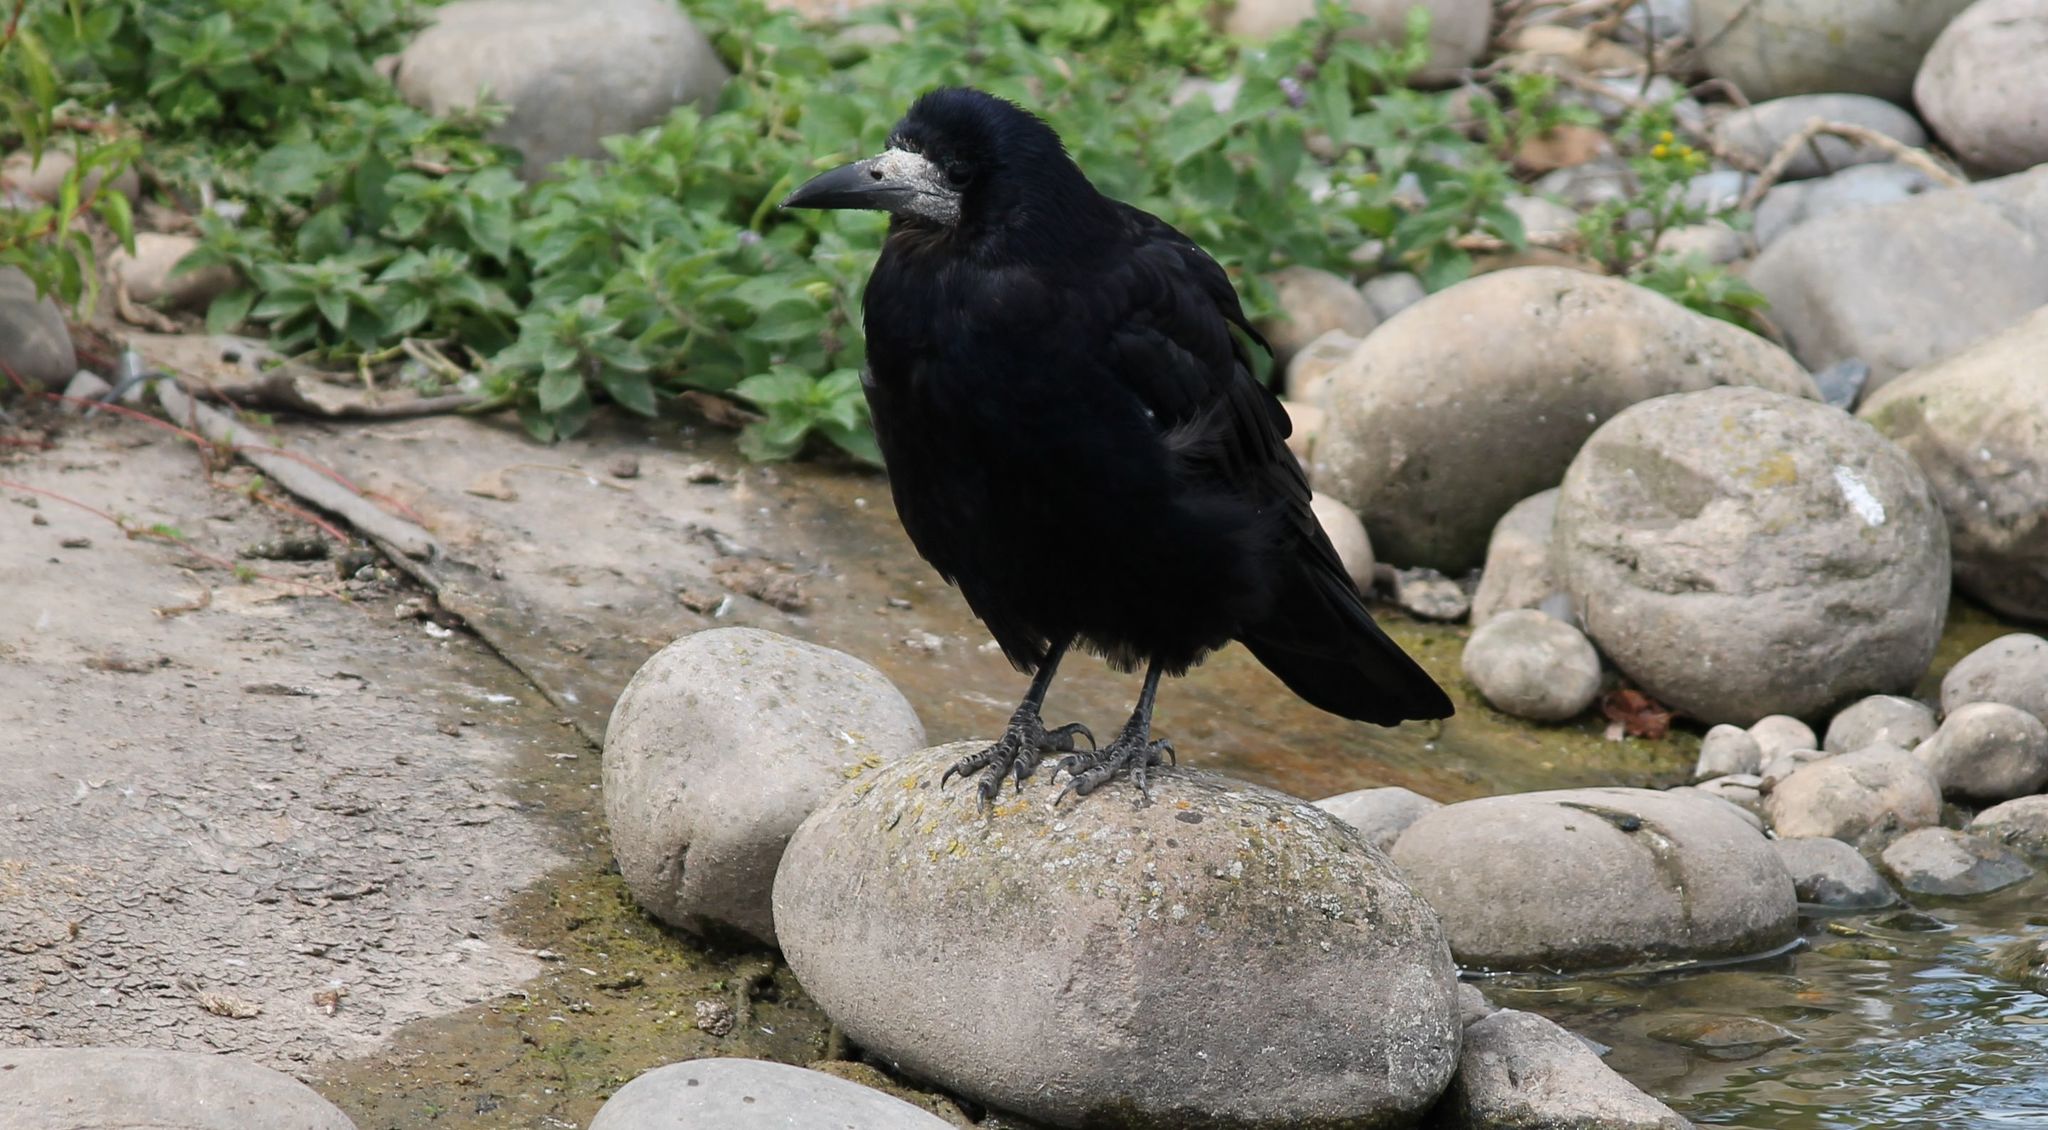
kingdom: Animalia
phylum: Chordata
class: Aves
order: Passeriformes
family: Corvidae
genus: Corvus
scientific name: Corvus frugilegus
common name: Rook
